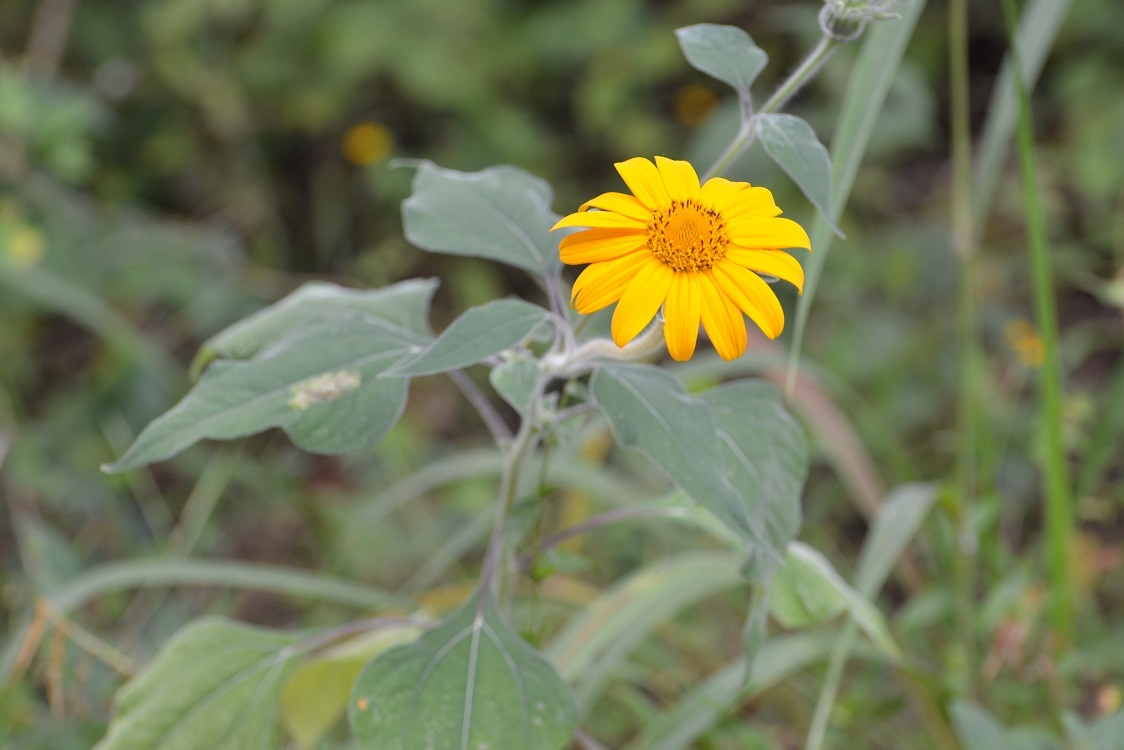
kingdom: Plantae
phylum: Tracheophyta
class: Magnoliopsida
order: Asterales
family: Asteraceae
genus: Tithonia
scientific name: Tithonia tubaeformis
